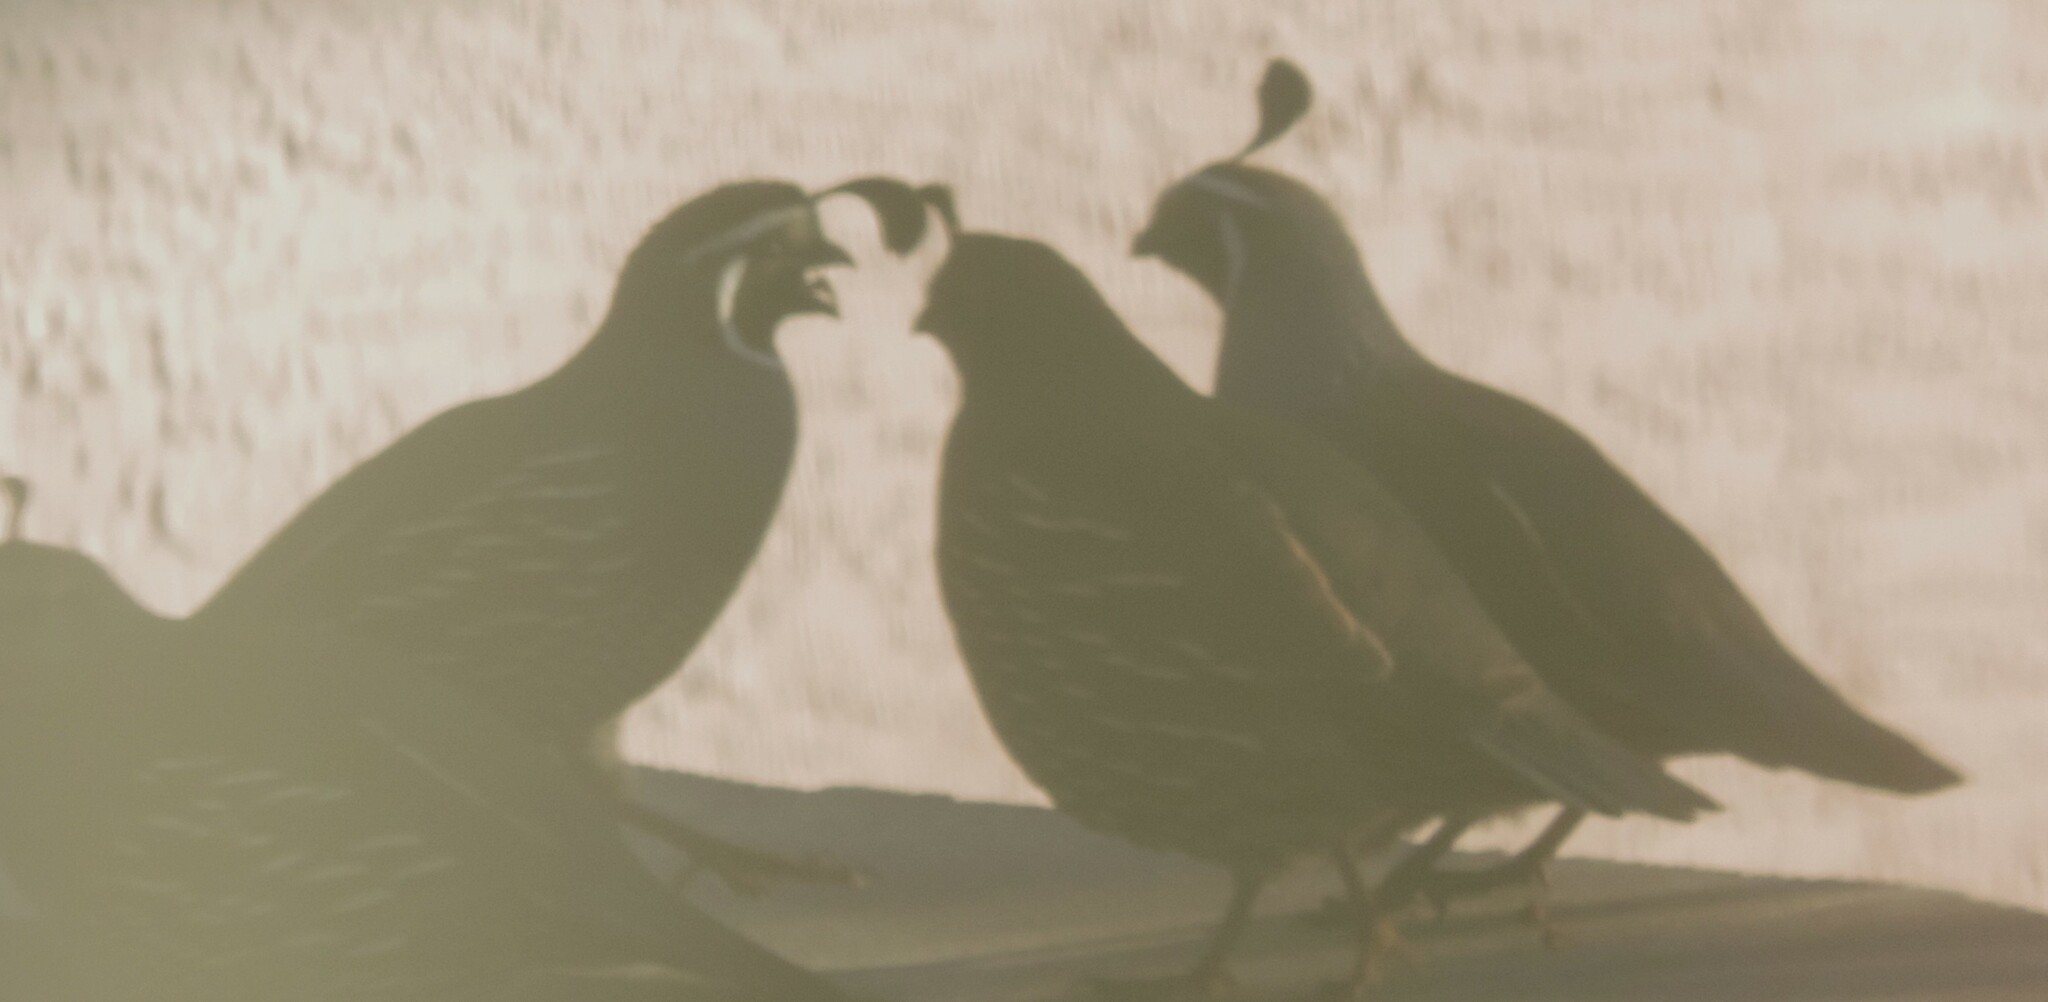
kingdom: Animalia
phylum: Chordata
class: Aves
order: Galliformes
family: Odontophoridae
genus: Callipepla
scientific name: Callipepla californica
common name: California quail
